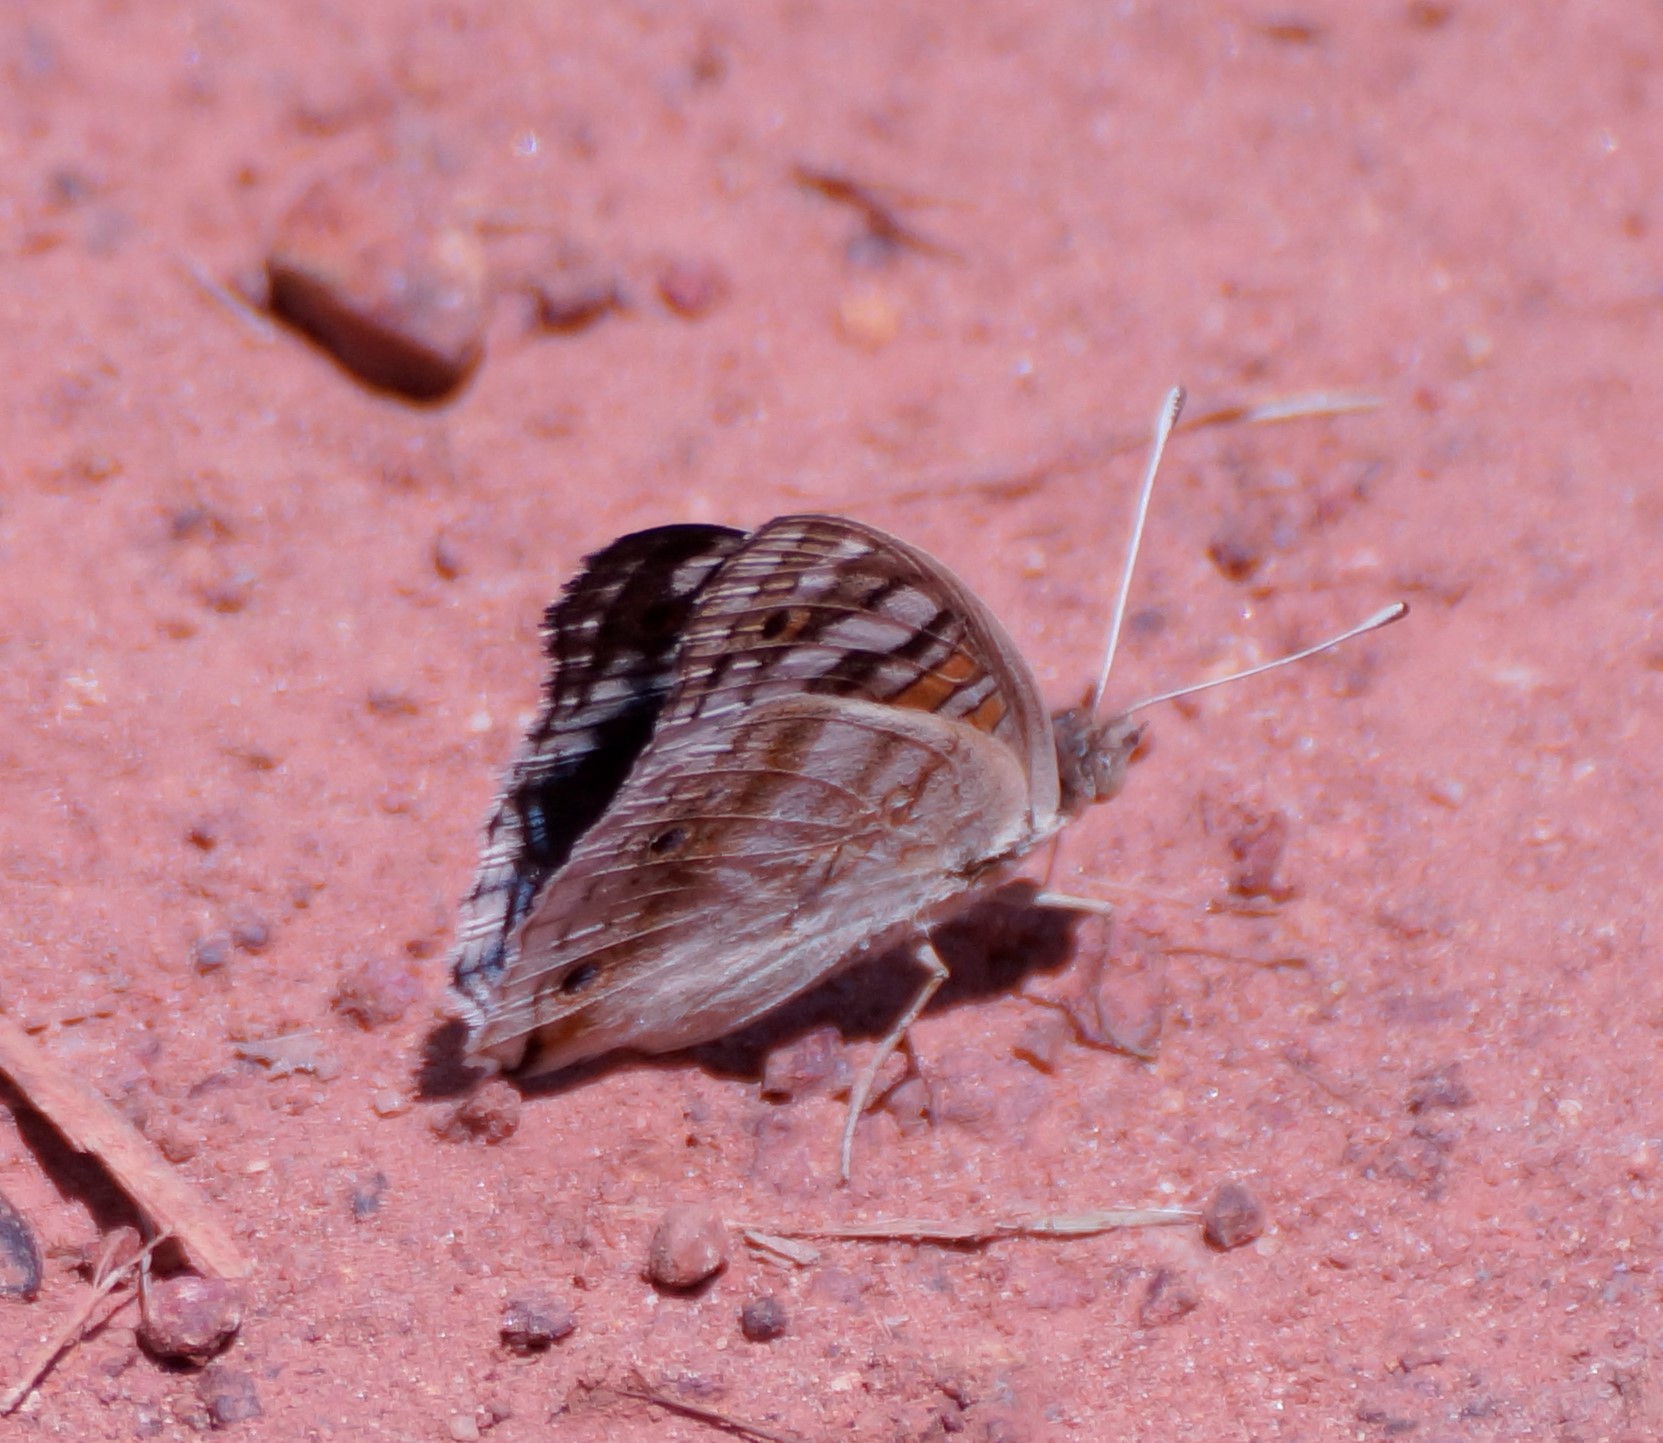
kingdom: Animalia
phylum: Arthropoda
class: Insecta
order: Lepidoptera
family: Nymphalidae
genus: Junonia
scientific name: Junonia orithya
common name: Blue pansy
